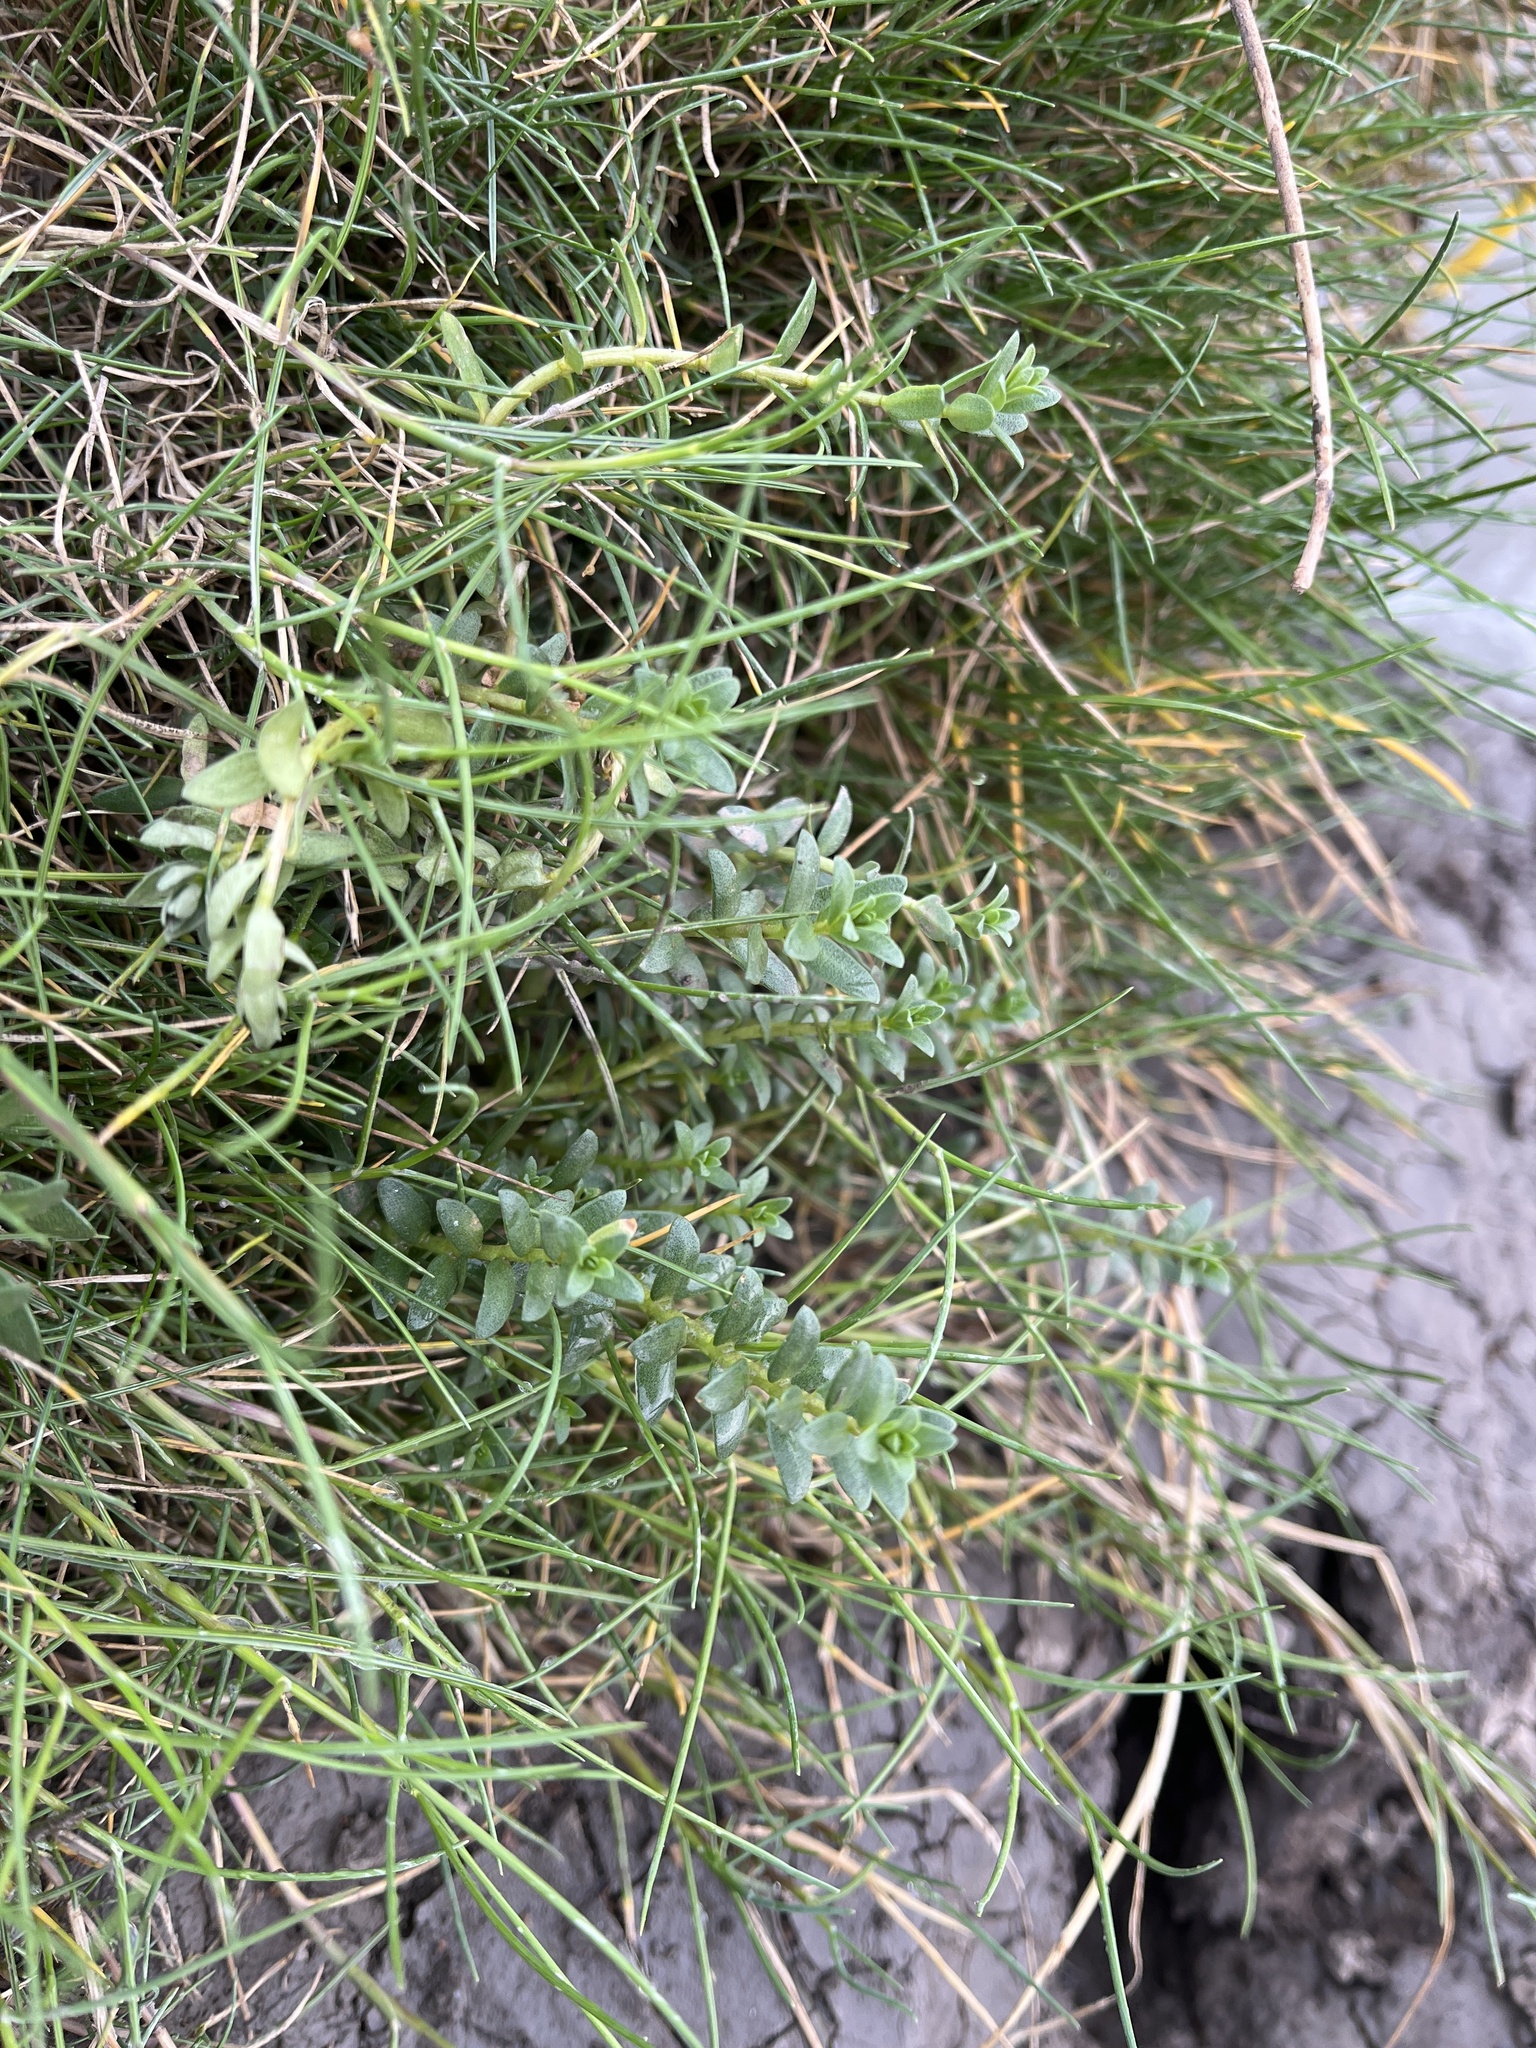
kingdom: Plantae
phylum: Tracheophyta
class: Magnoliopsida
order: Ericales
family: Primulaceae
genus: Lysimachia
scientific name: Lysimachia maritima
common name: Sea milkwort
